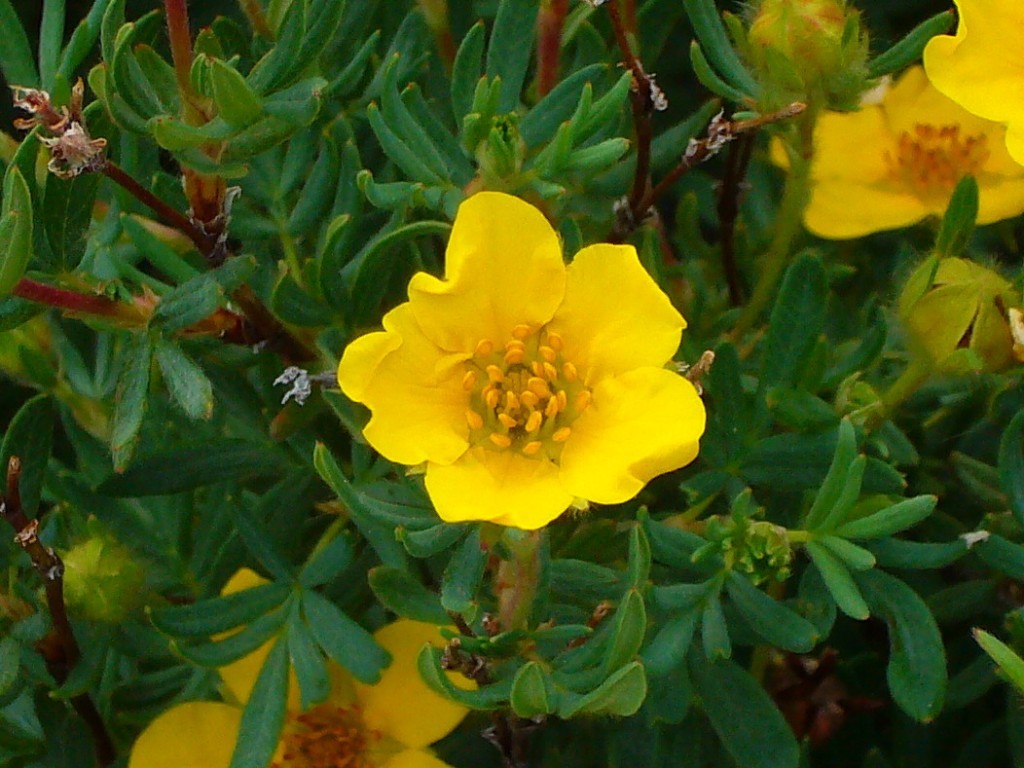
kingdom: Plantae
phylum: Tracheophyta
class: Magnoliopsida
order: Rosales
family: Rosaceae
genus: Dasiphora
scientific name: Dasiphora fruticosa
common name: Shrubby cinquefoil
